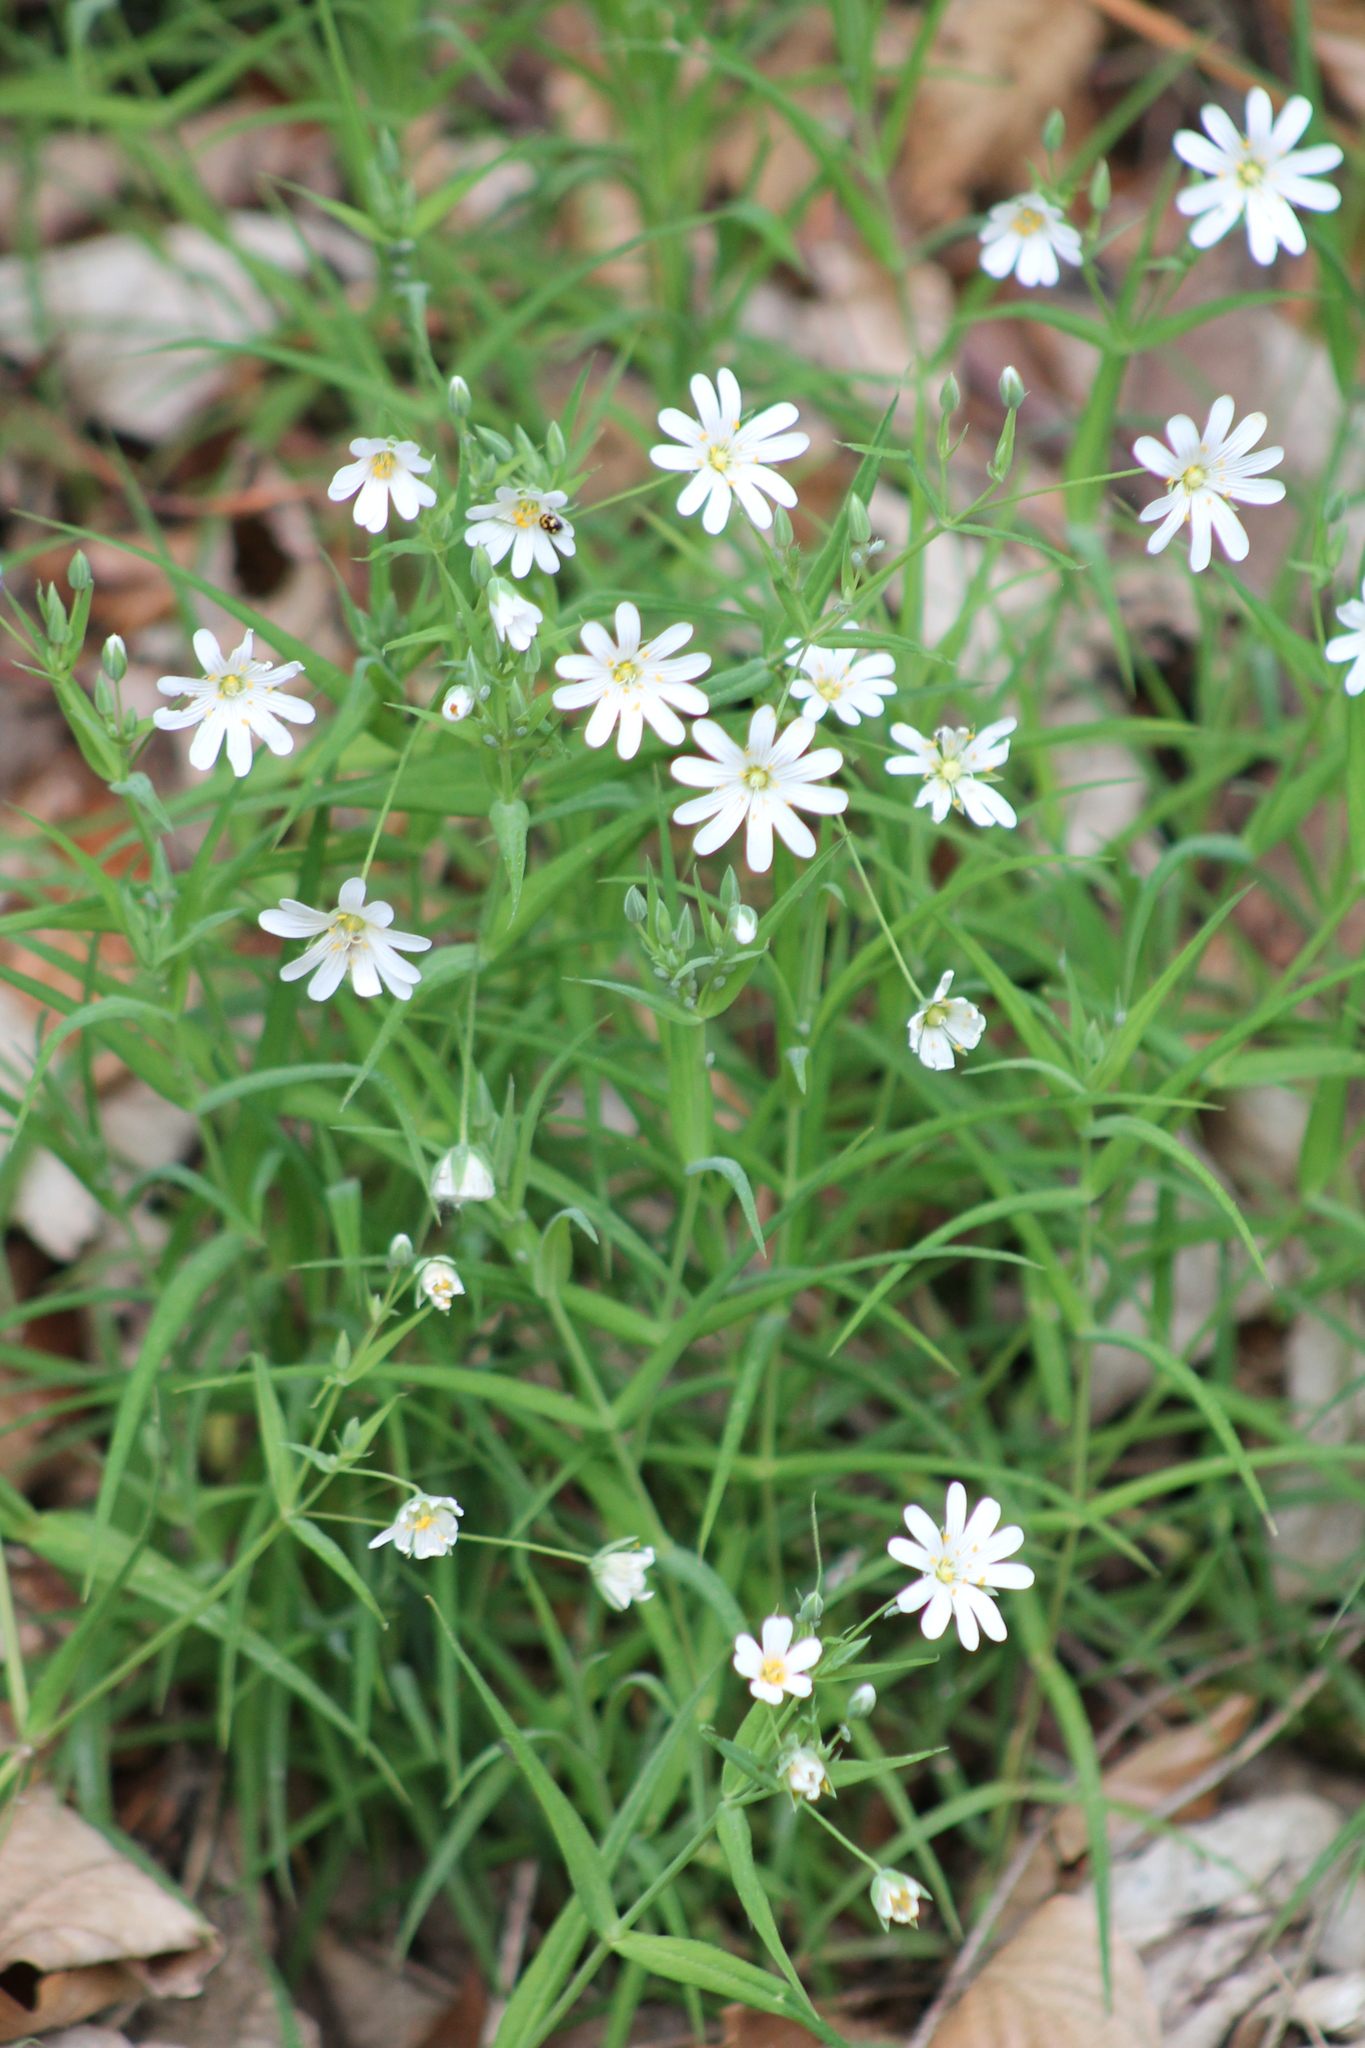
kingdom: Plantae
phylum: Tracheophyta
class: Magnoliopsida
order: Caryophyllales
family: Caryophyllaceae
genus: Rabelera
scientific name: Rabelera holostea
